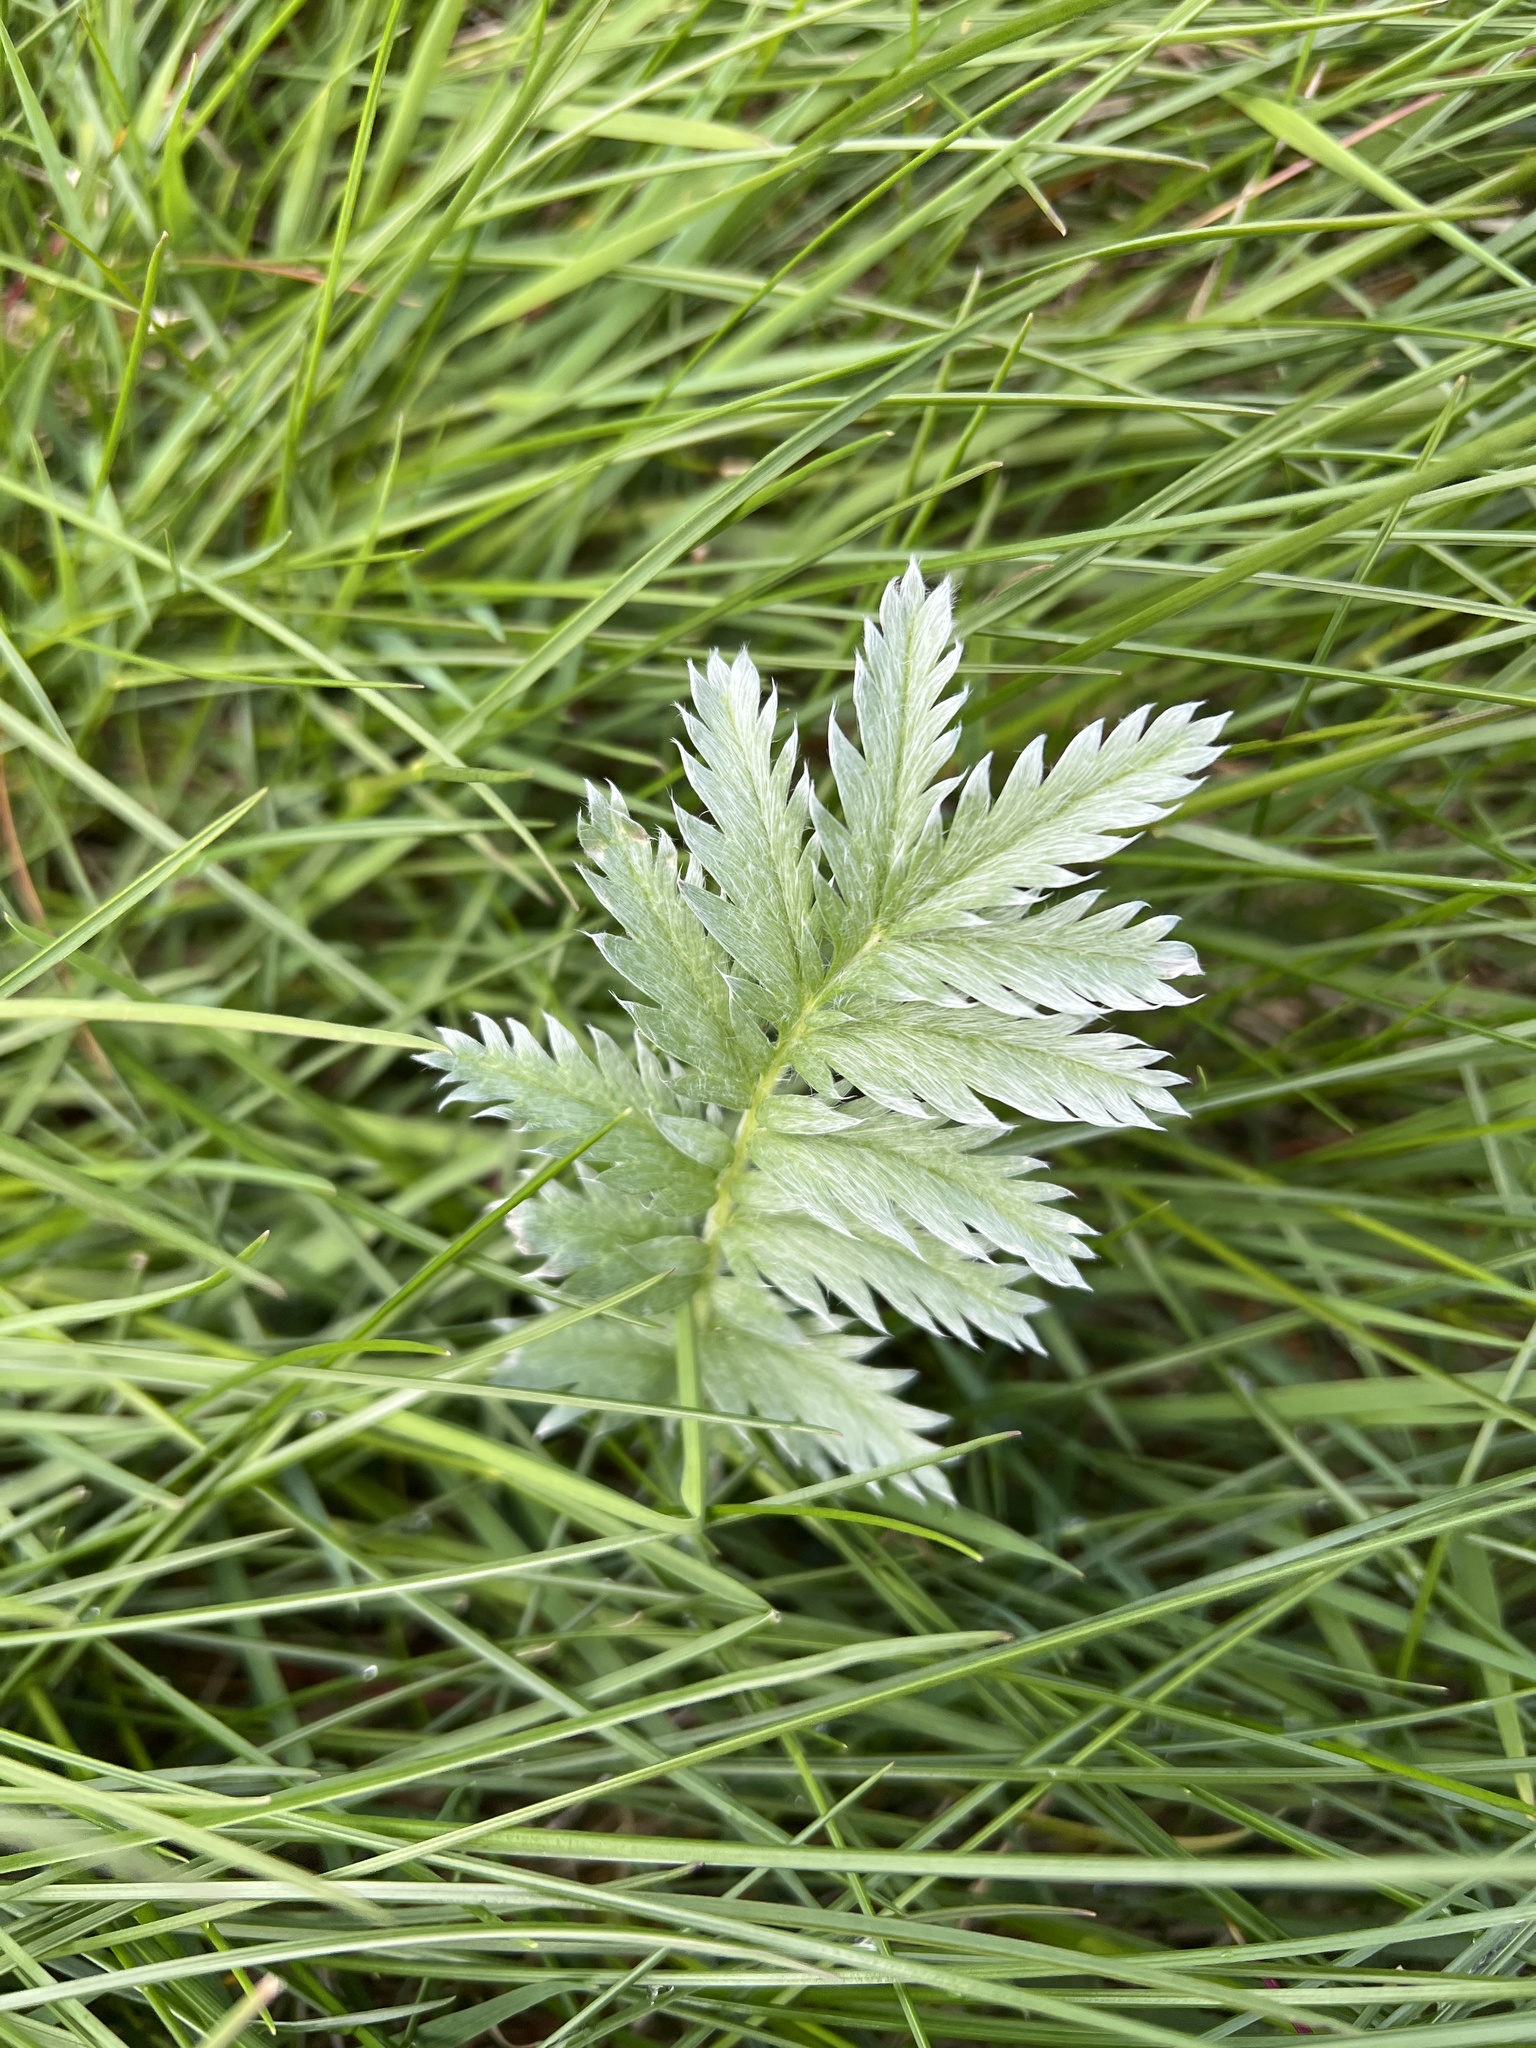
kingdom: Plantae
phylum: Tracheophyta
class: Magnoliopsida
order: Rosales
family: Rosaceae
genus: Argentina
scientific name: Argentina anserina
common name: Common silverweed
